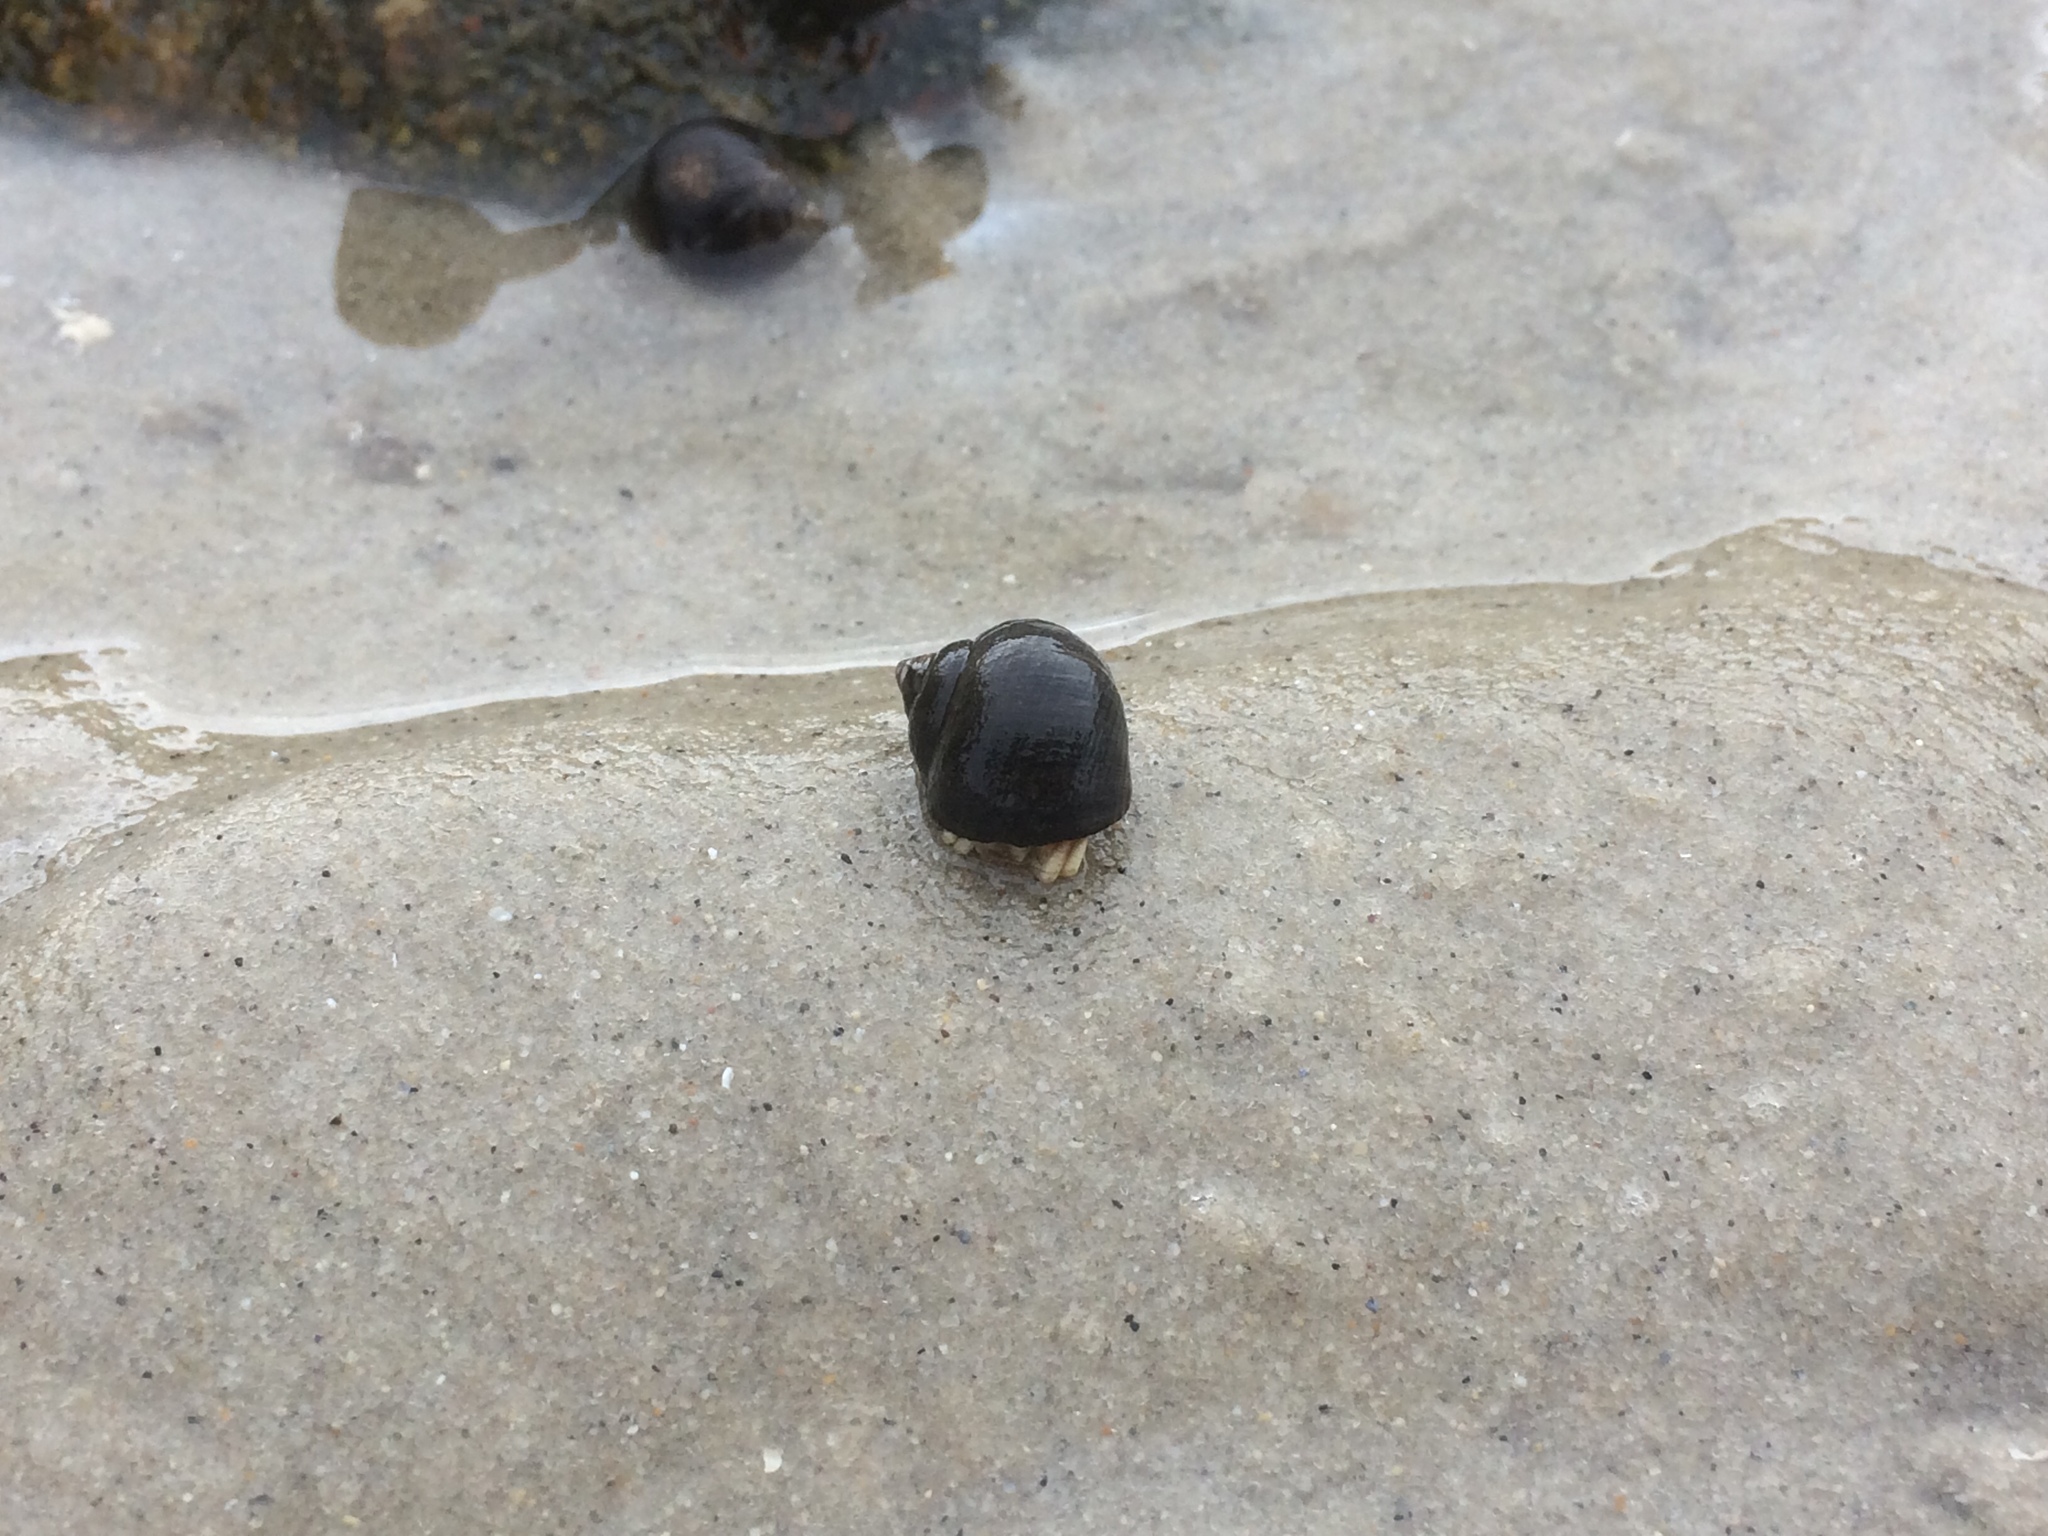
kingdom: Animalia
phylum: Arthropoda
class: Malacostraca
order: Decapoda
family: Paguridae
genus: Pagurus
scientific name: Pagurus longicarpus
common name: Long-armed hermit crab
